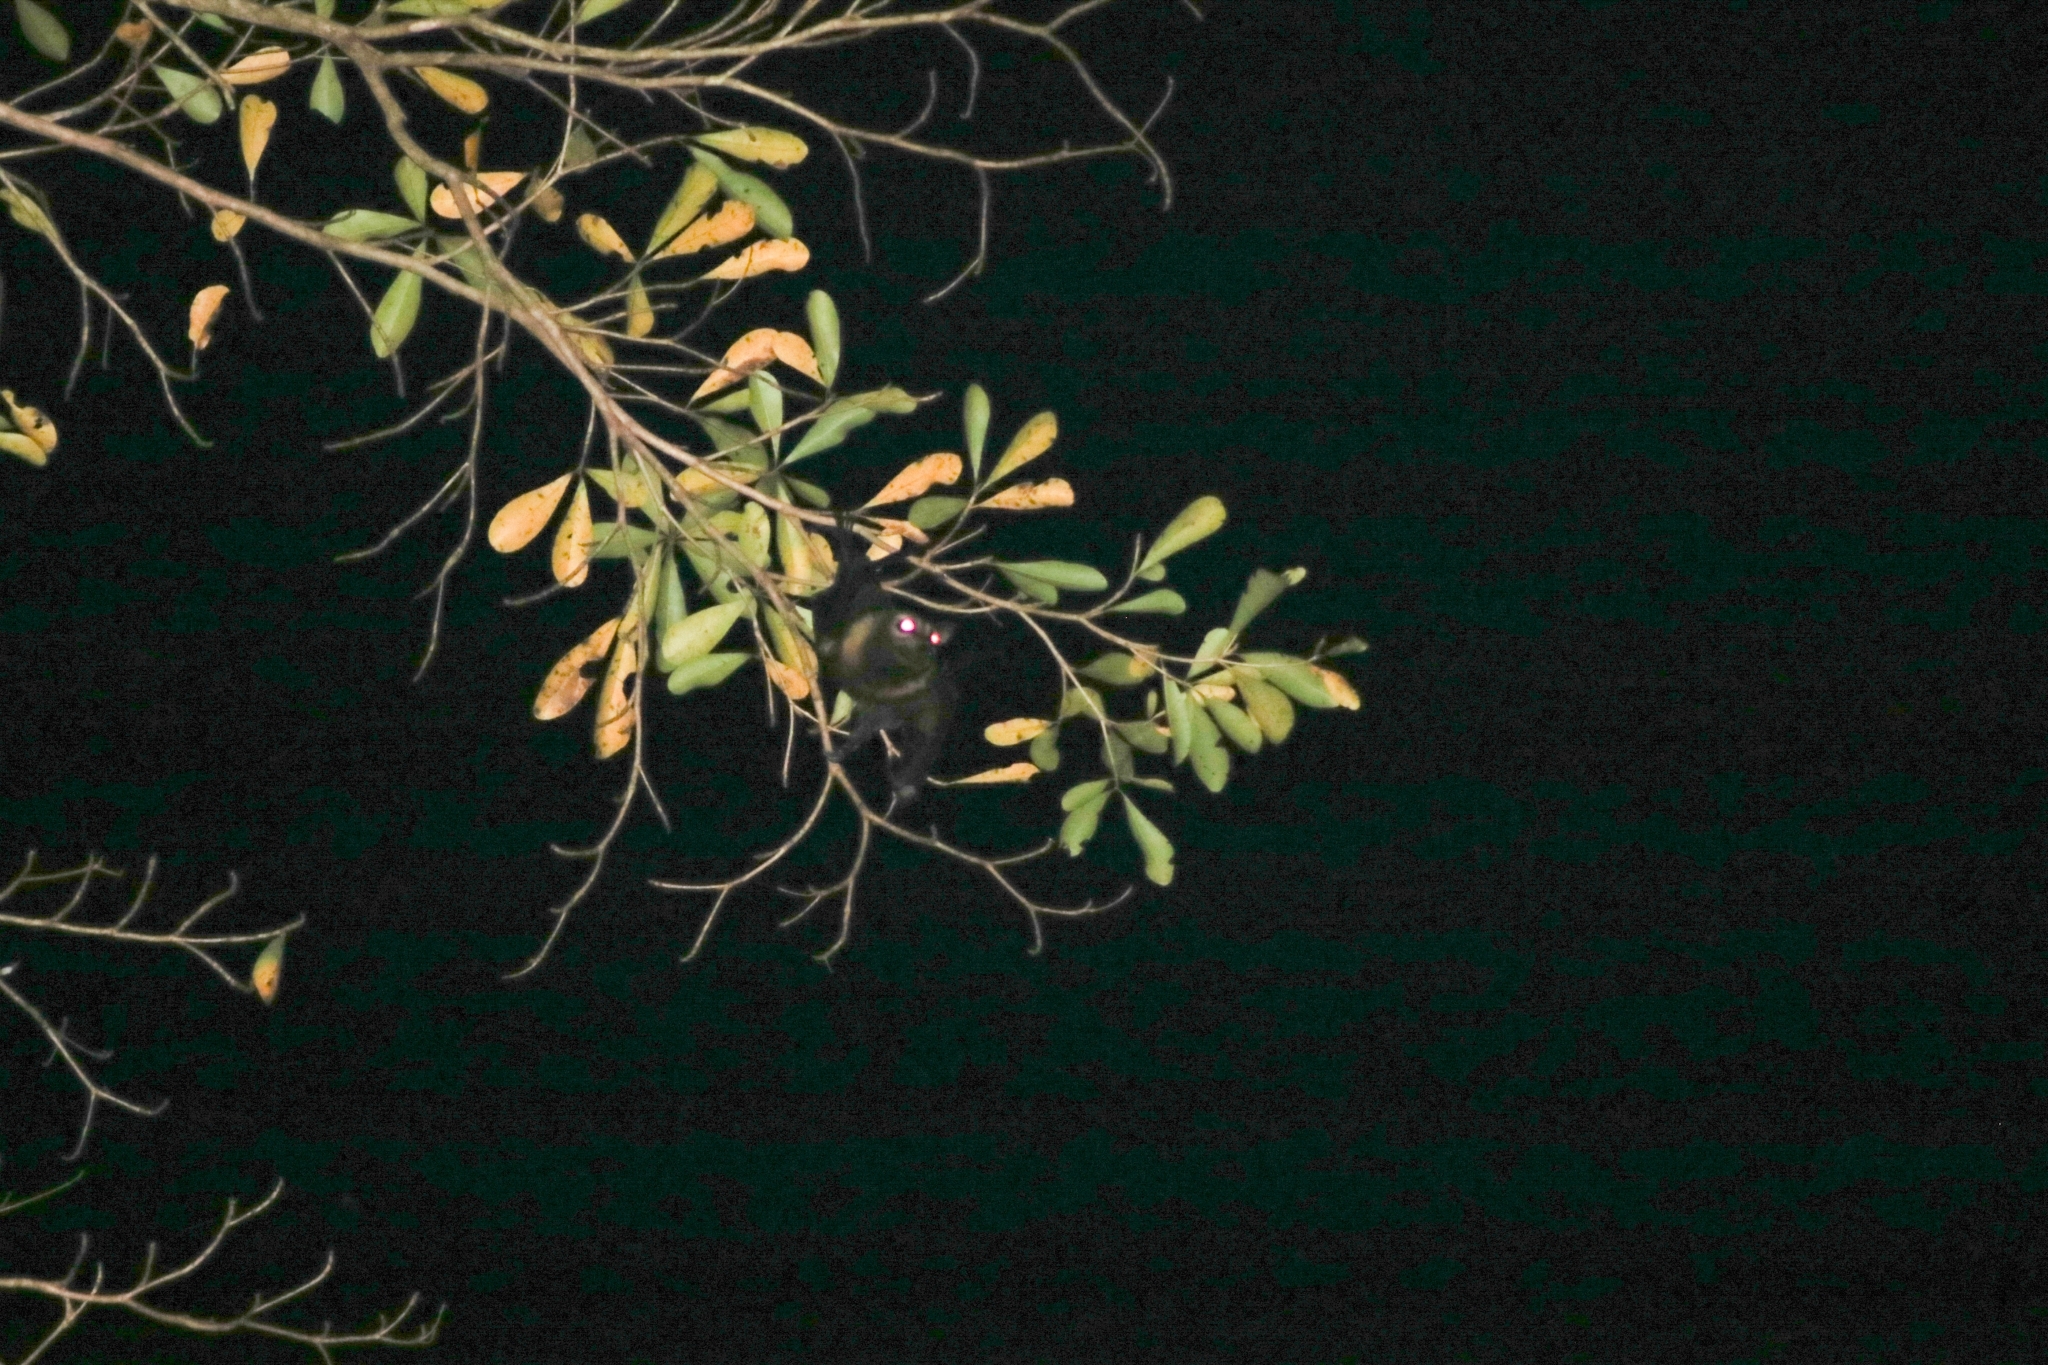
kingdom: Animalia
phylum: Chordata
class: Mammalia
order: Chiroptera
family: Pteropodidae
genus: Pteropus
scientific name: Pteropus conspicillatus
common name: Spectacled flying fox
